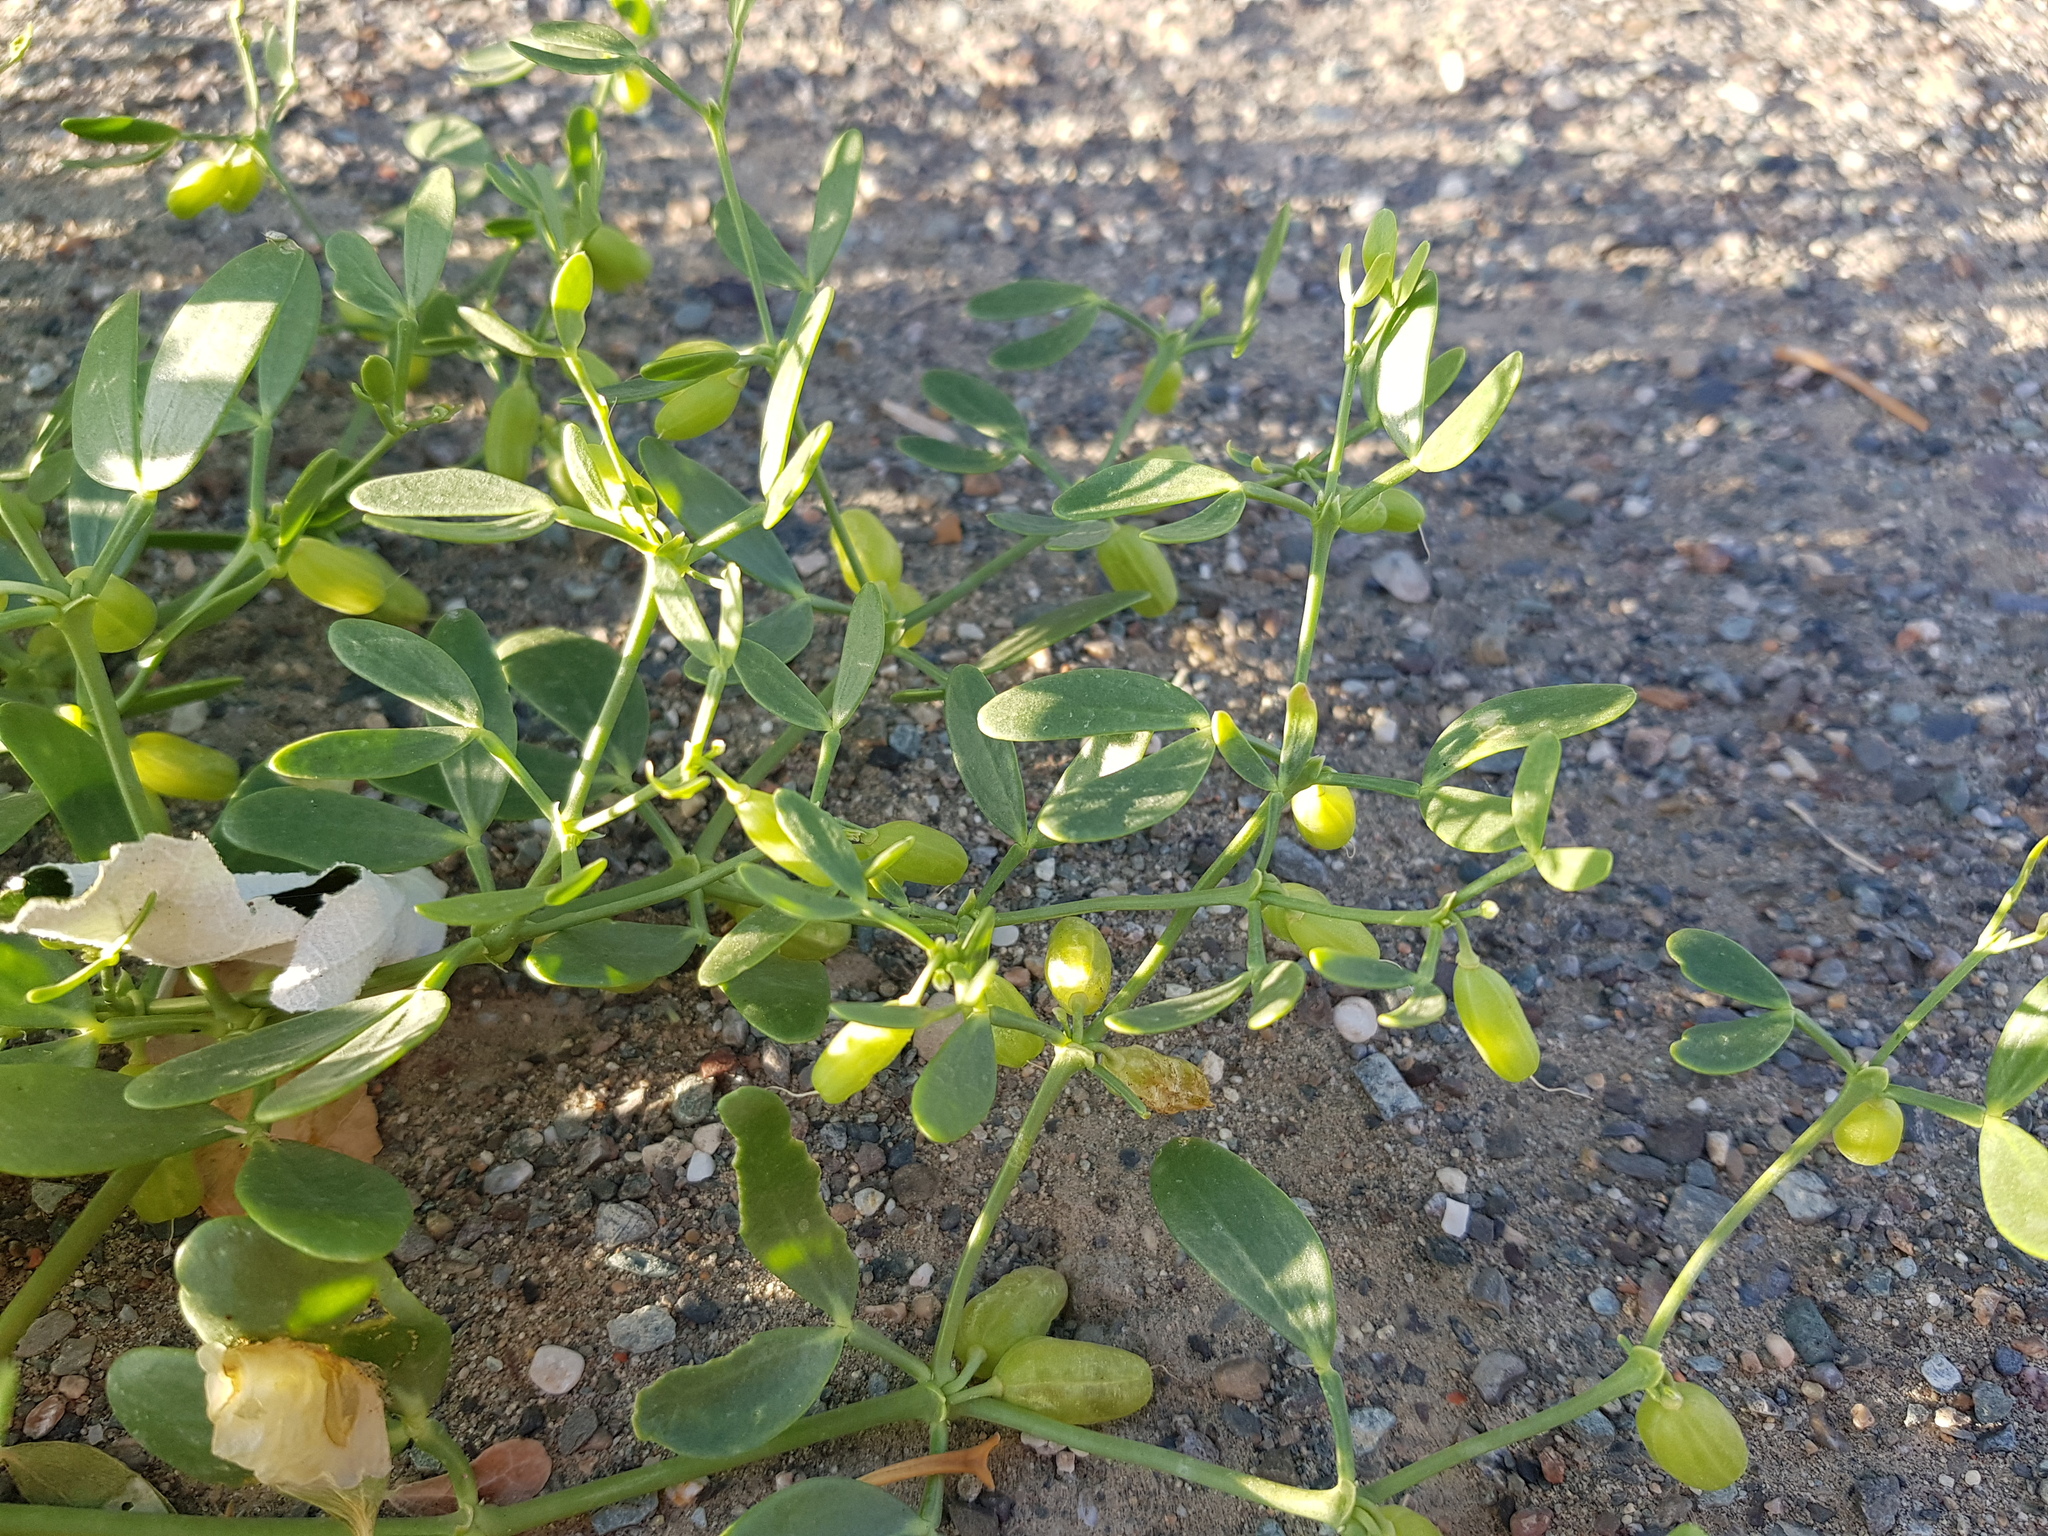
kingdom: Plantae
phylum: Tracheophyta
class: Magnoliopsida
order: Zygophyllales
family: Zygophyllaceae
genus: Zygophyllum
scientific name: Zygophyllum brachypterum
